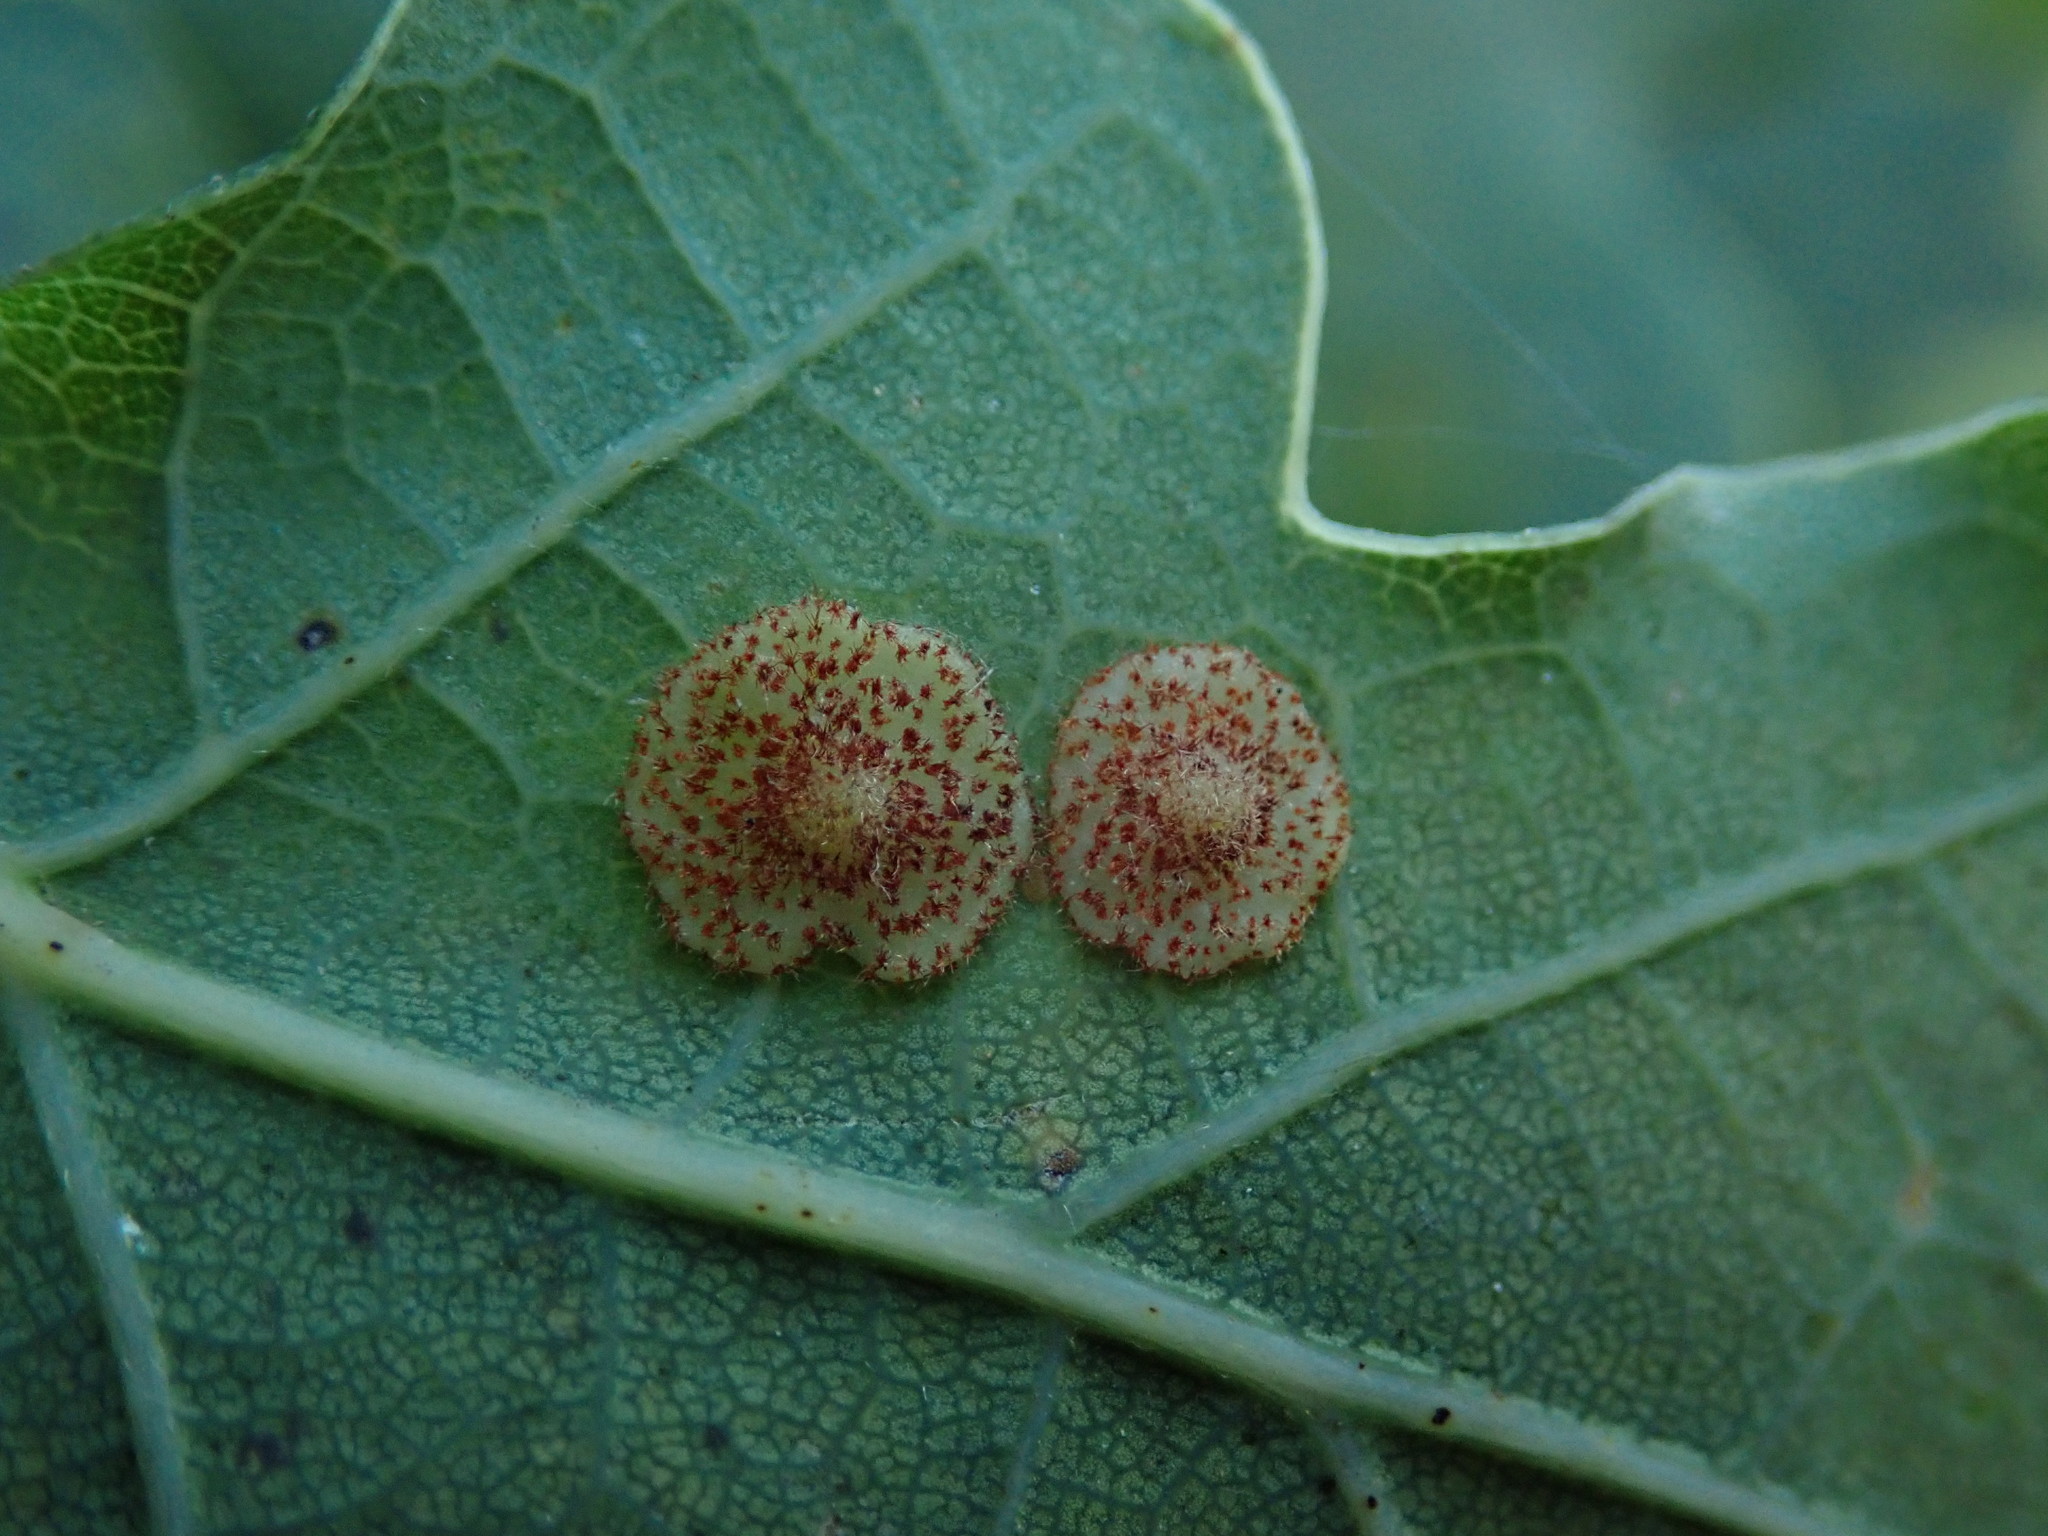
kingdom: Animalia
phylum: Arthropoda
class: Insecta
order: Hymenoptera
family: Cynipidae
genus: Neuroterus
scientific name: Neuroterus quercusbaccarum
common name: Common spangle gall
